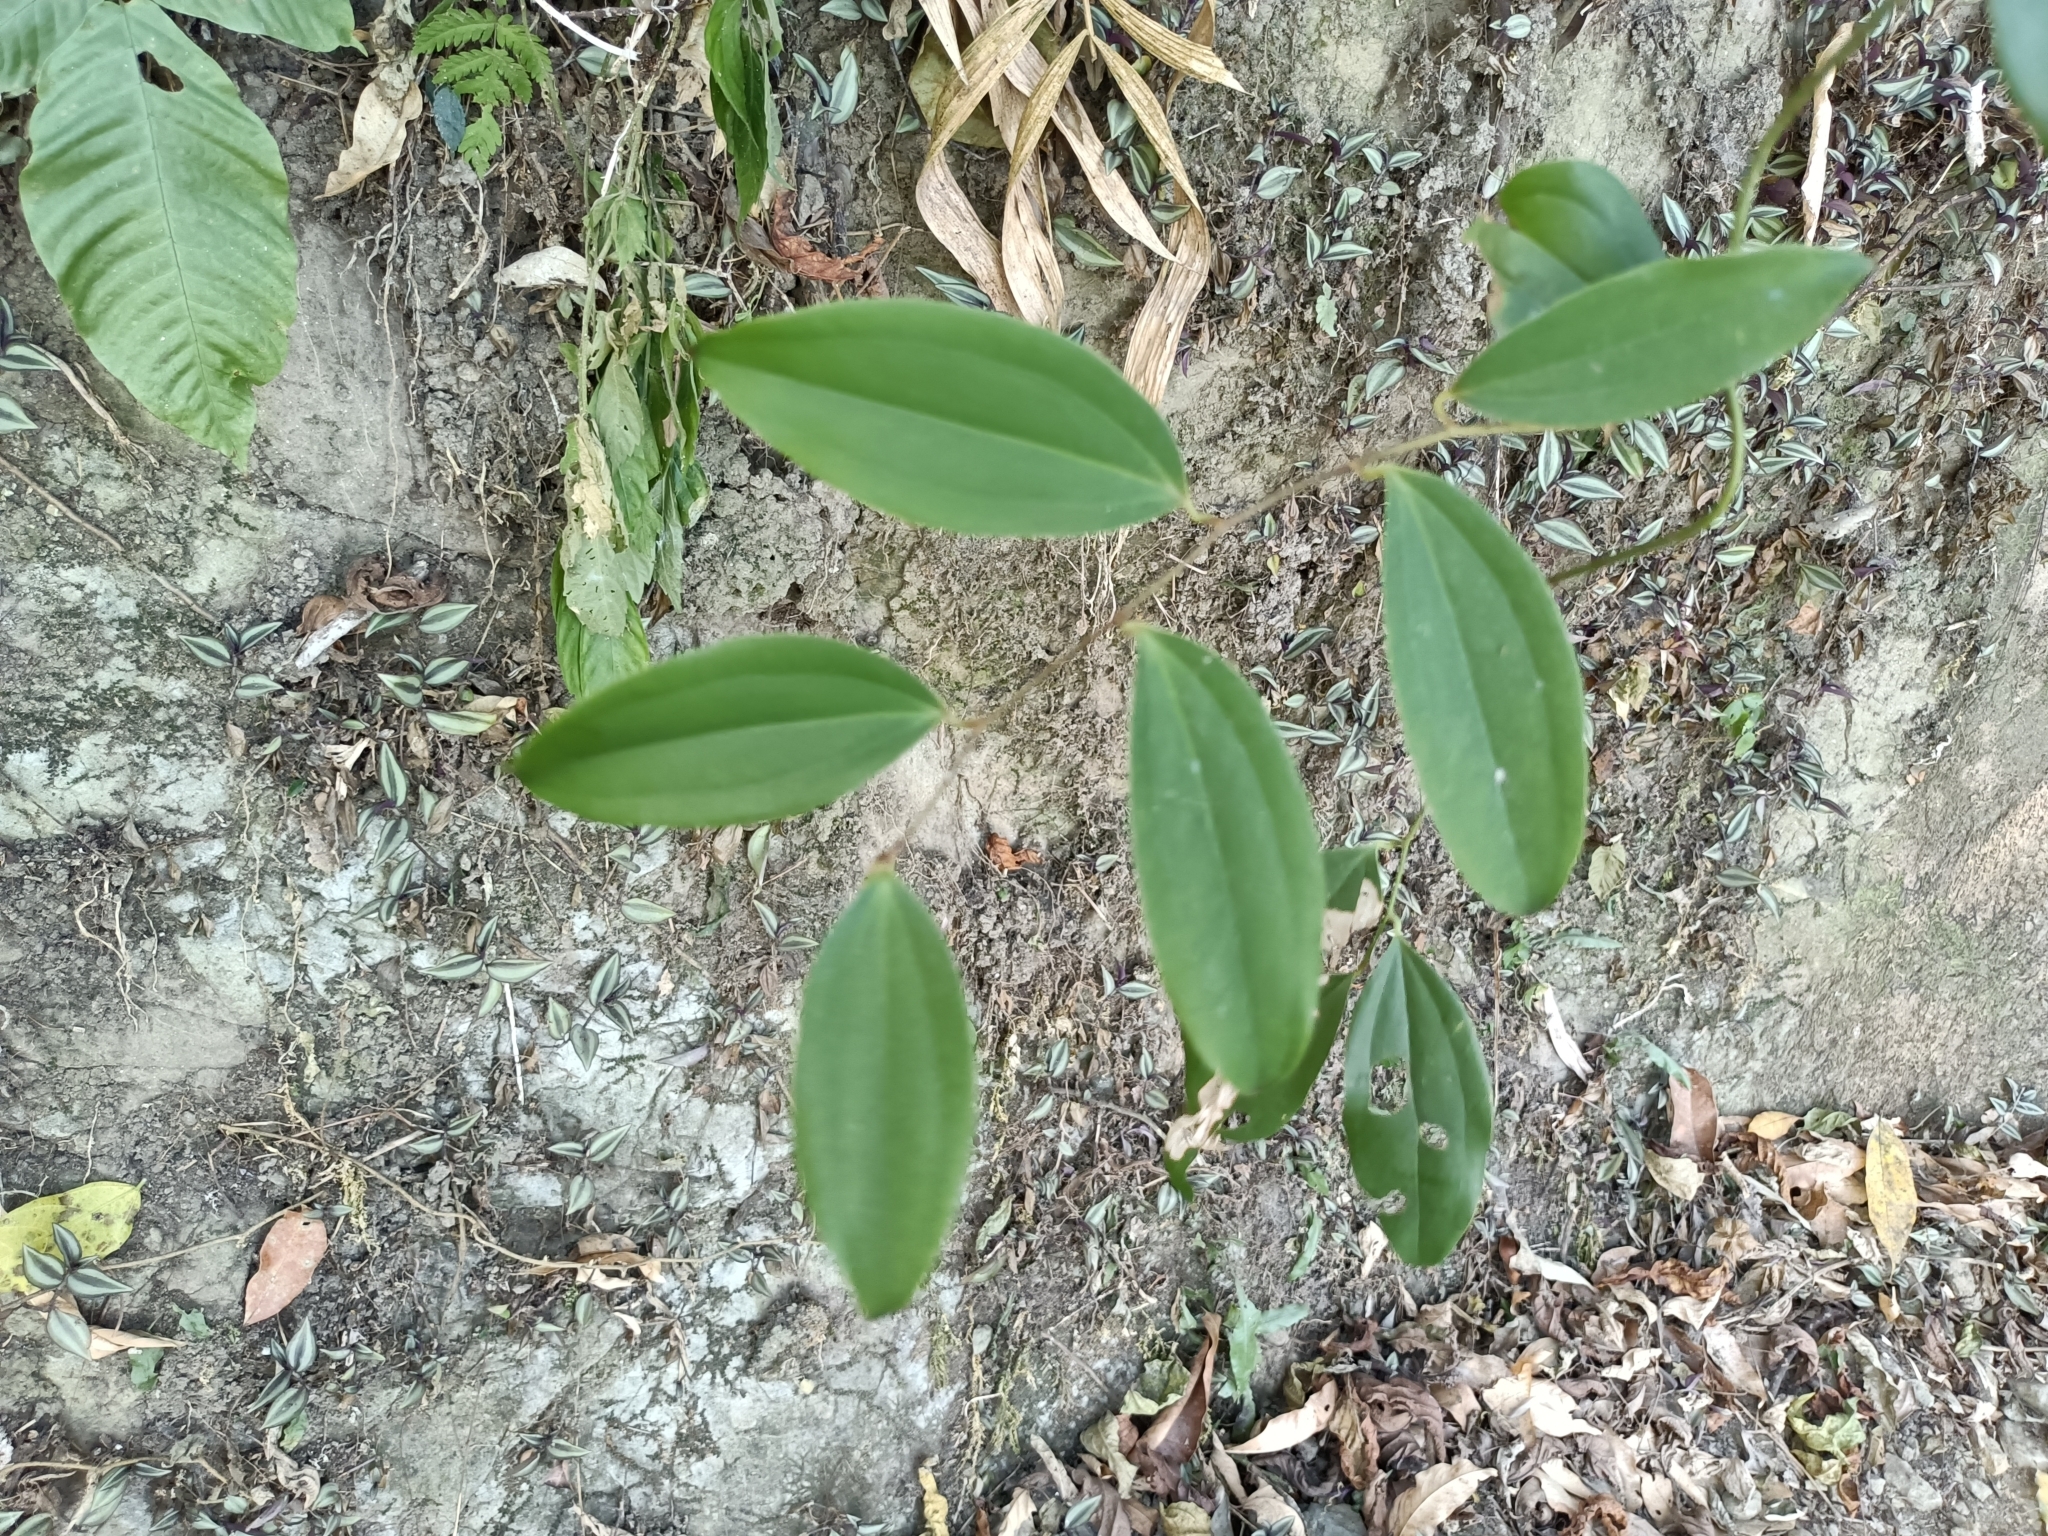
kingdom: Plantae
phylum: Tracheophyta
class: Liliopsida
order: Liliales
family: Smilacaceae
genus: Smilax
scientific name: Smilax bracteata
